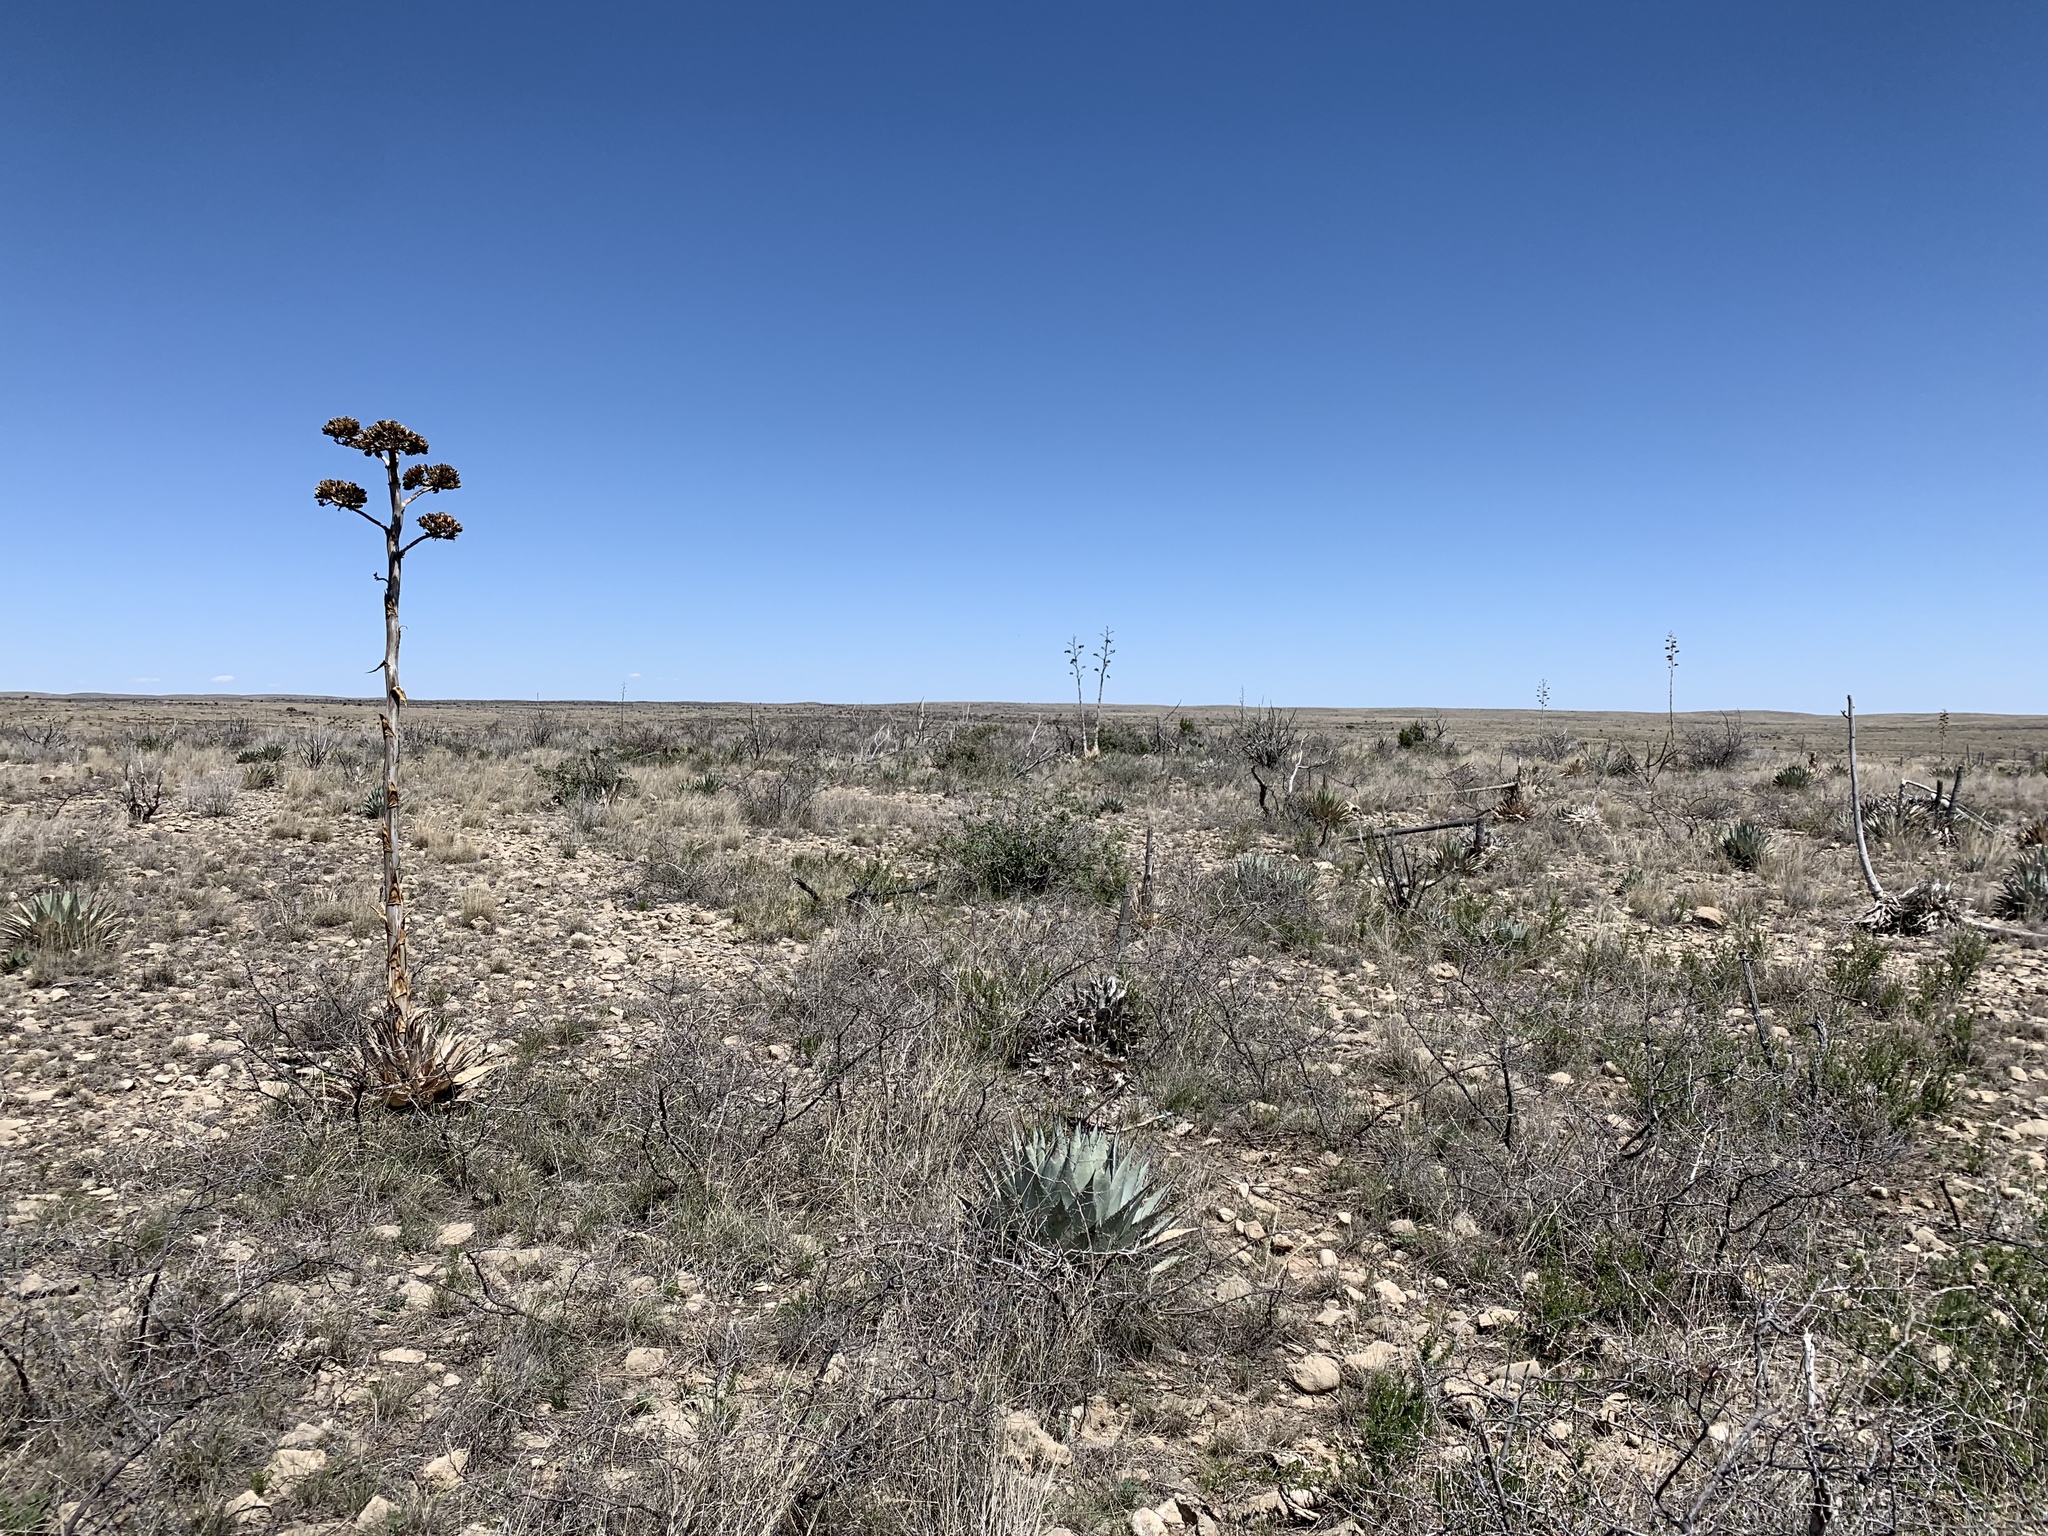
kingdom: Plantae
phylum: Tracheophyta
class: Liliopsida
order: Asparagales
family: Asparagaceae
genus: Agave
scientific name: Agave parryi
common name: Parry's agave
